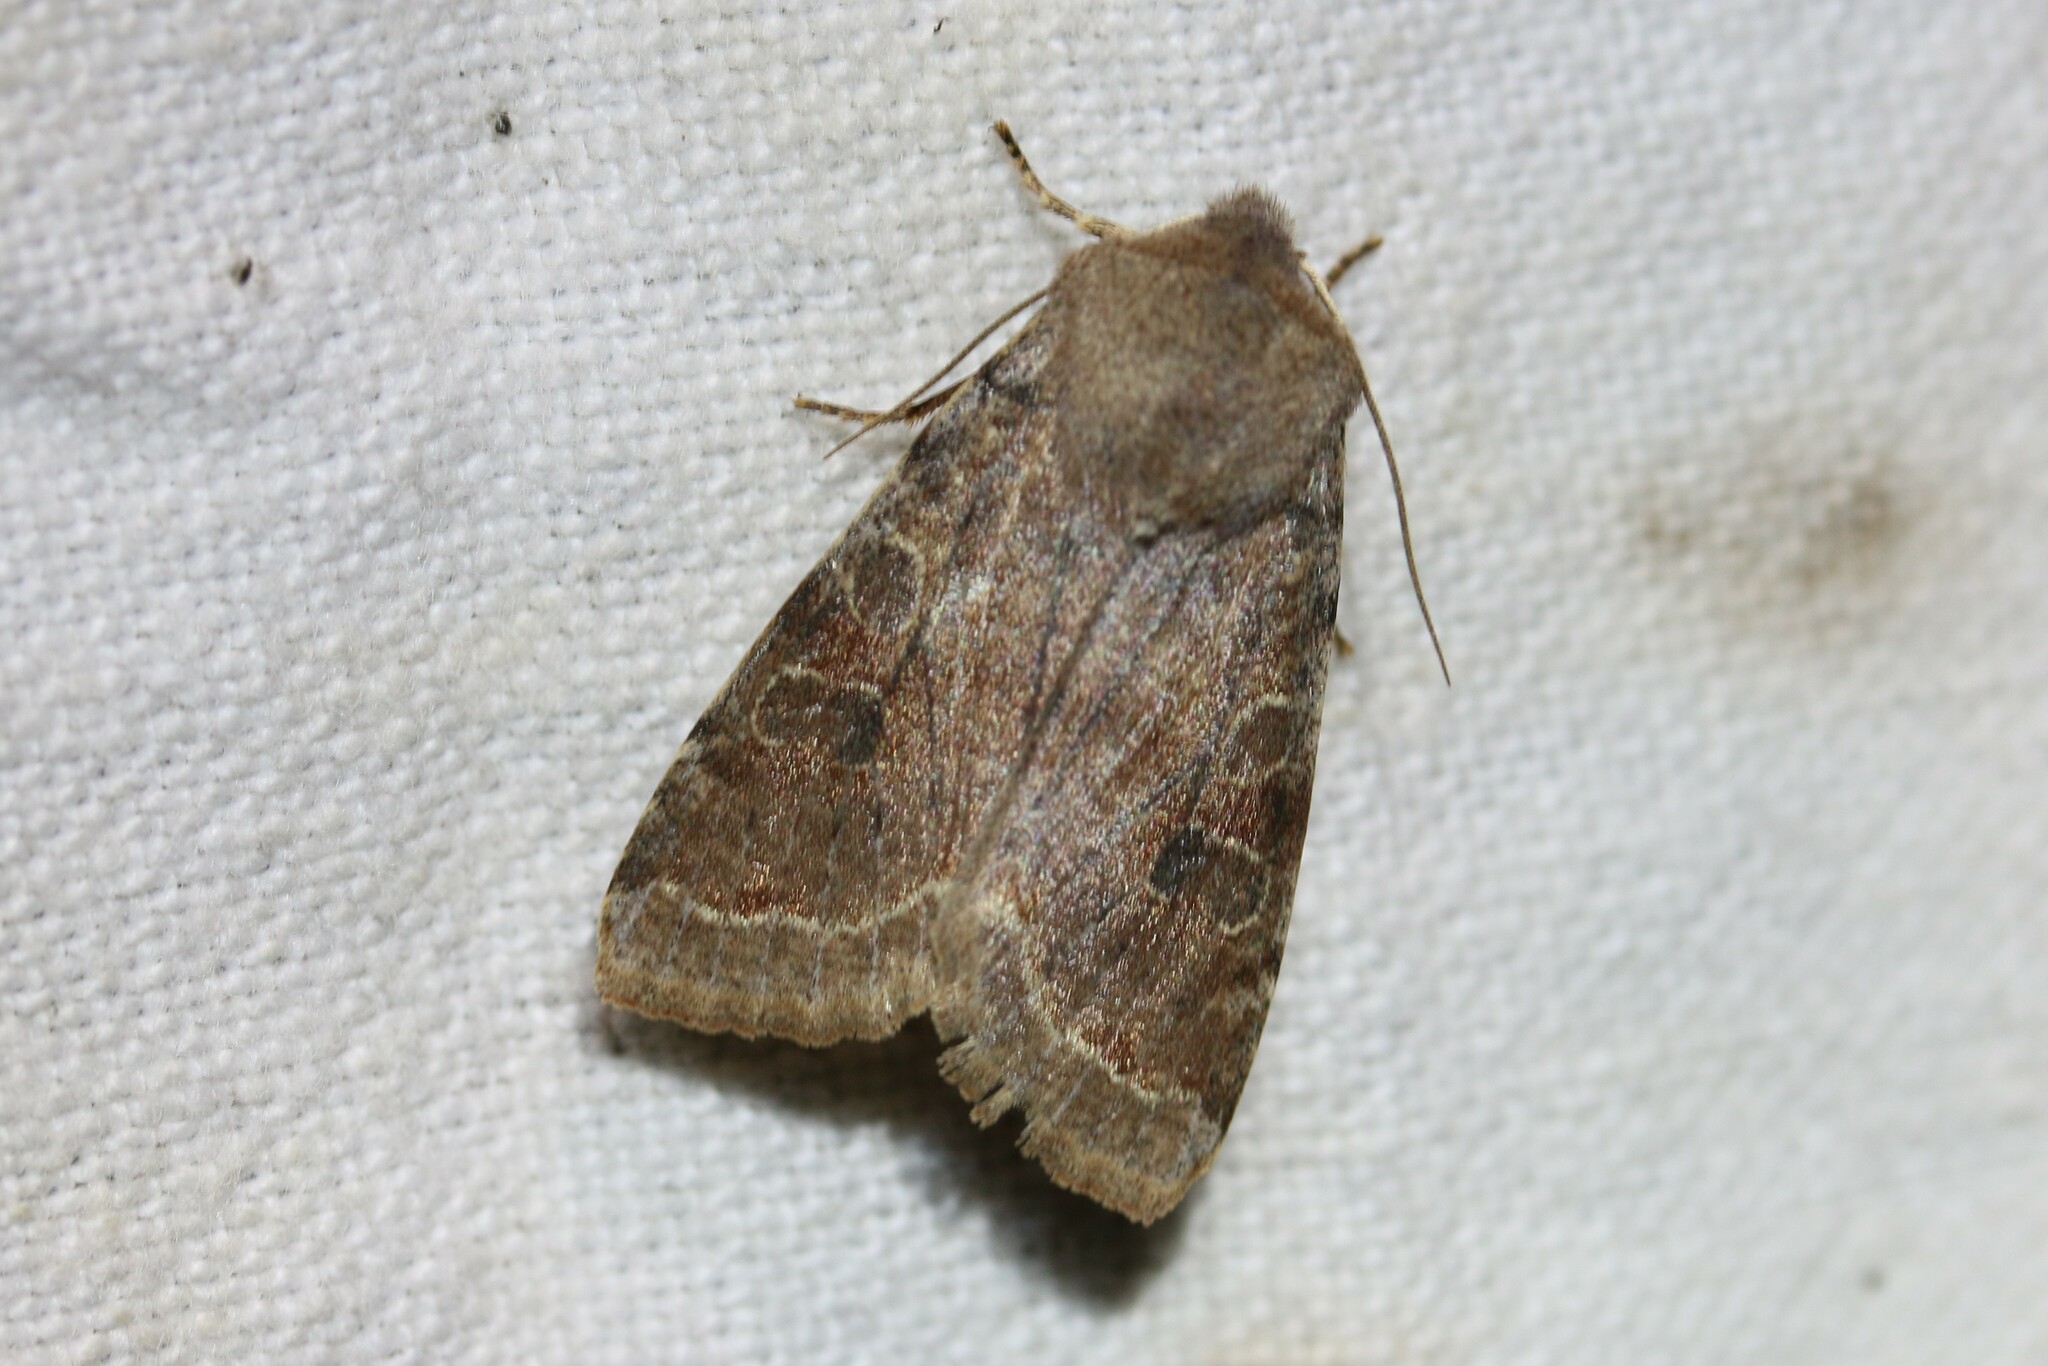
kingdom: Animalia
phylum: Arthropoda
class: Insecta
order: Lepidoptera
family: Noctuidae
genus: Orthosia
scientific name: Orthosia incerta
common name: Clouded drab
